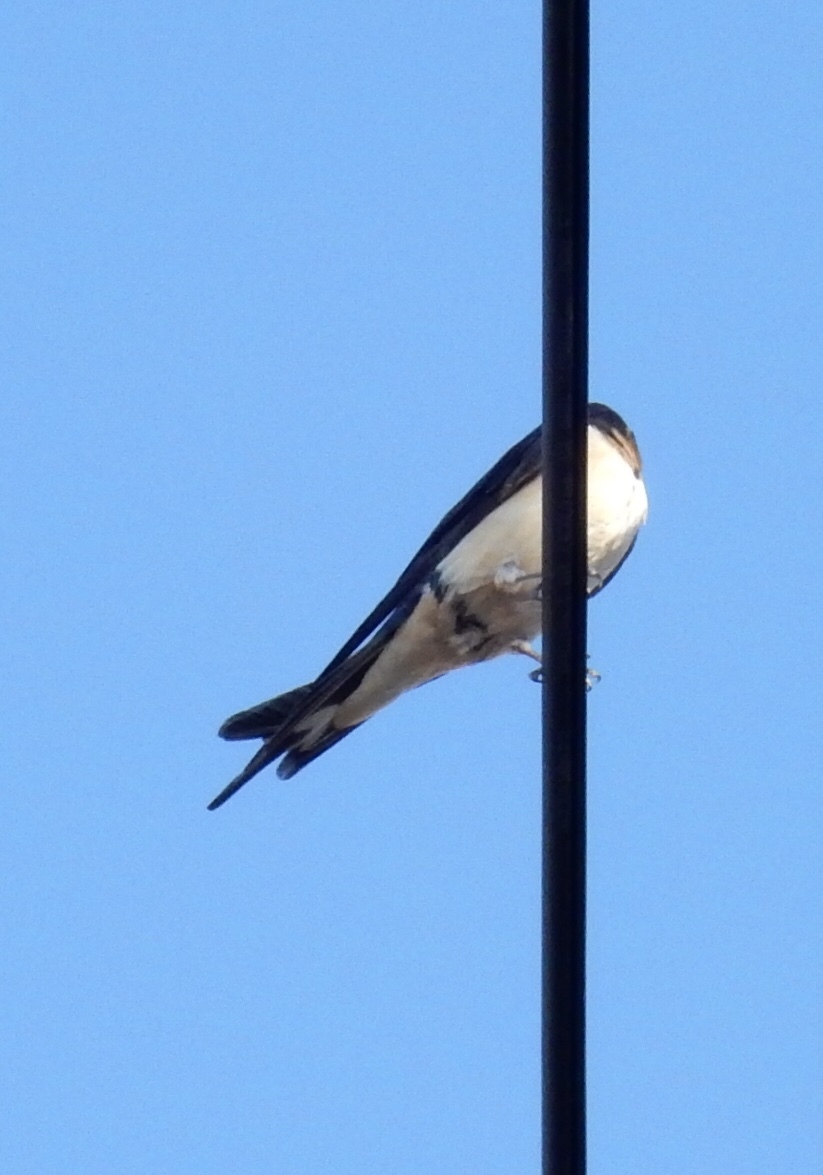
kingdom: Animalia
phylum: Chordata
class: Aves
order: Passeriformes
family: Hirundinidae
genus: Hirundo
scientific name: Hirundo rustica
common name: Barn swallow
